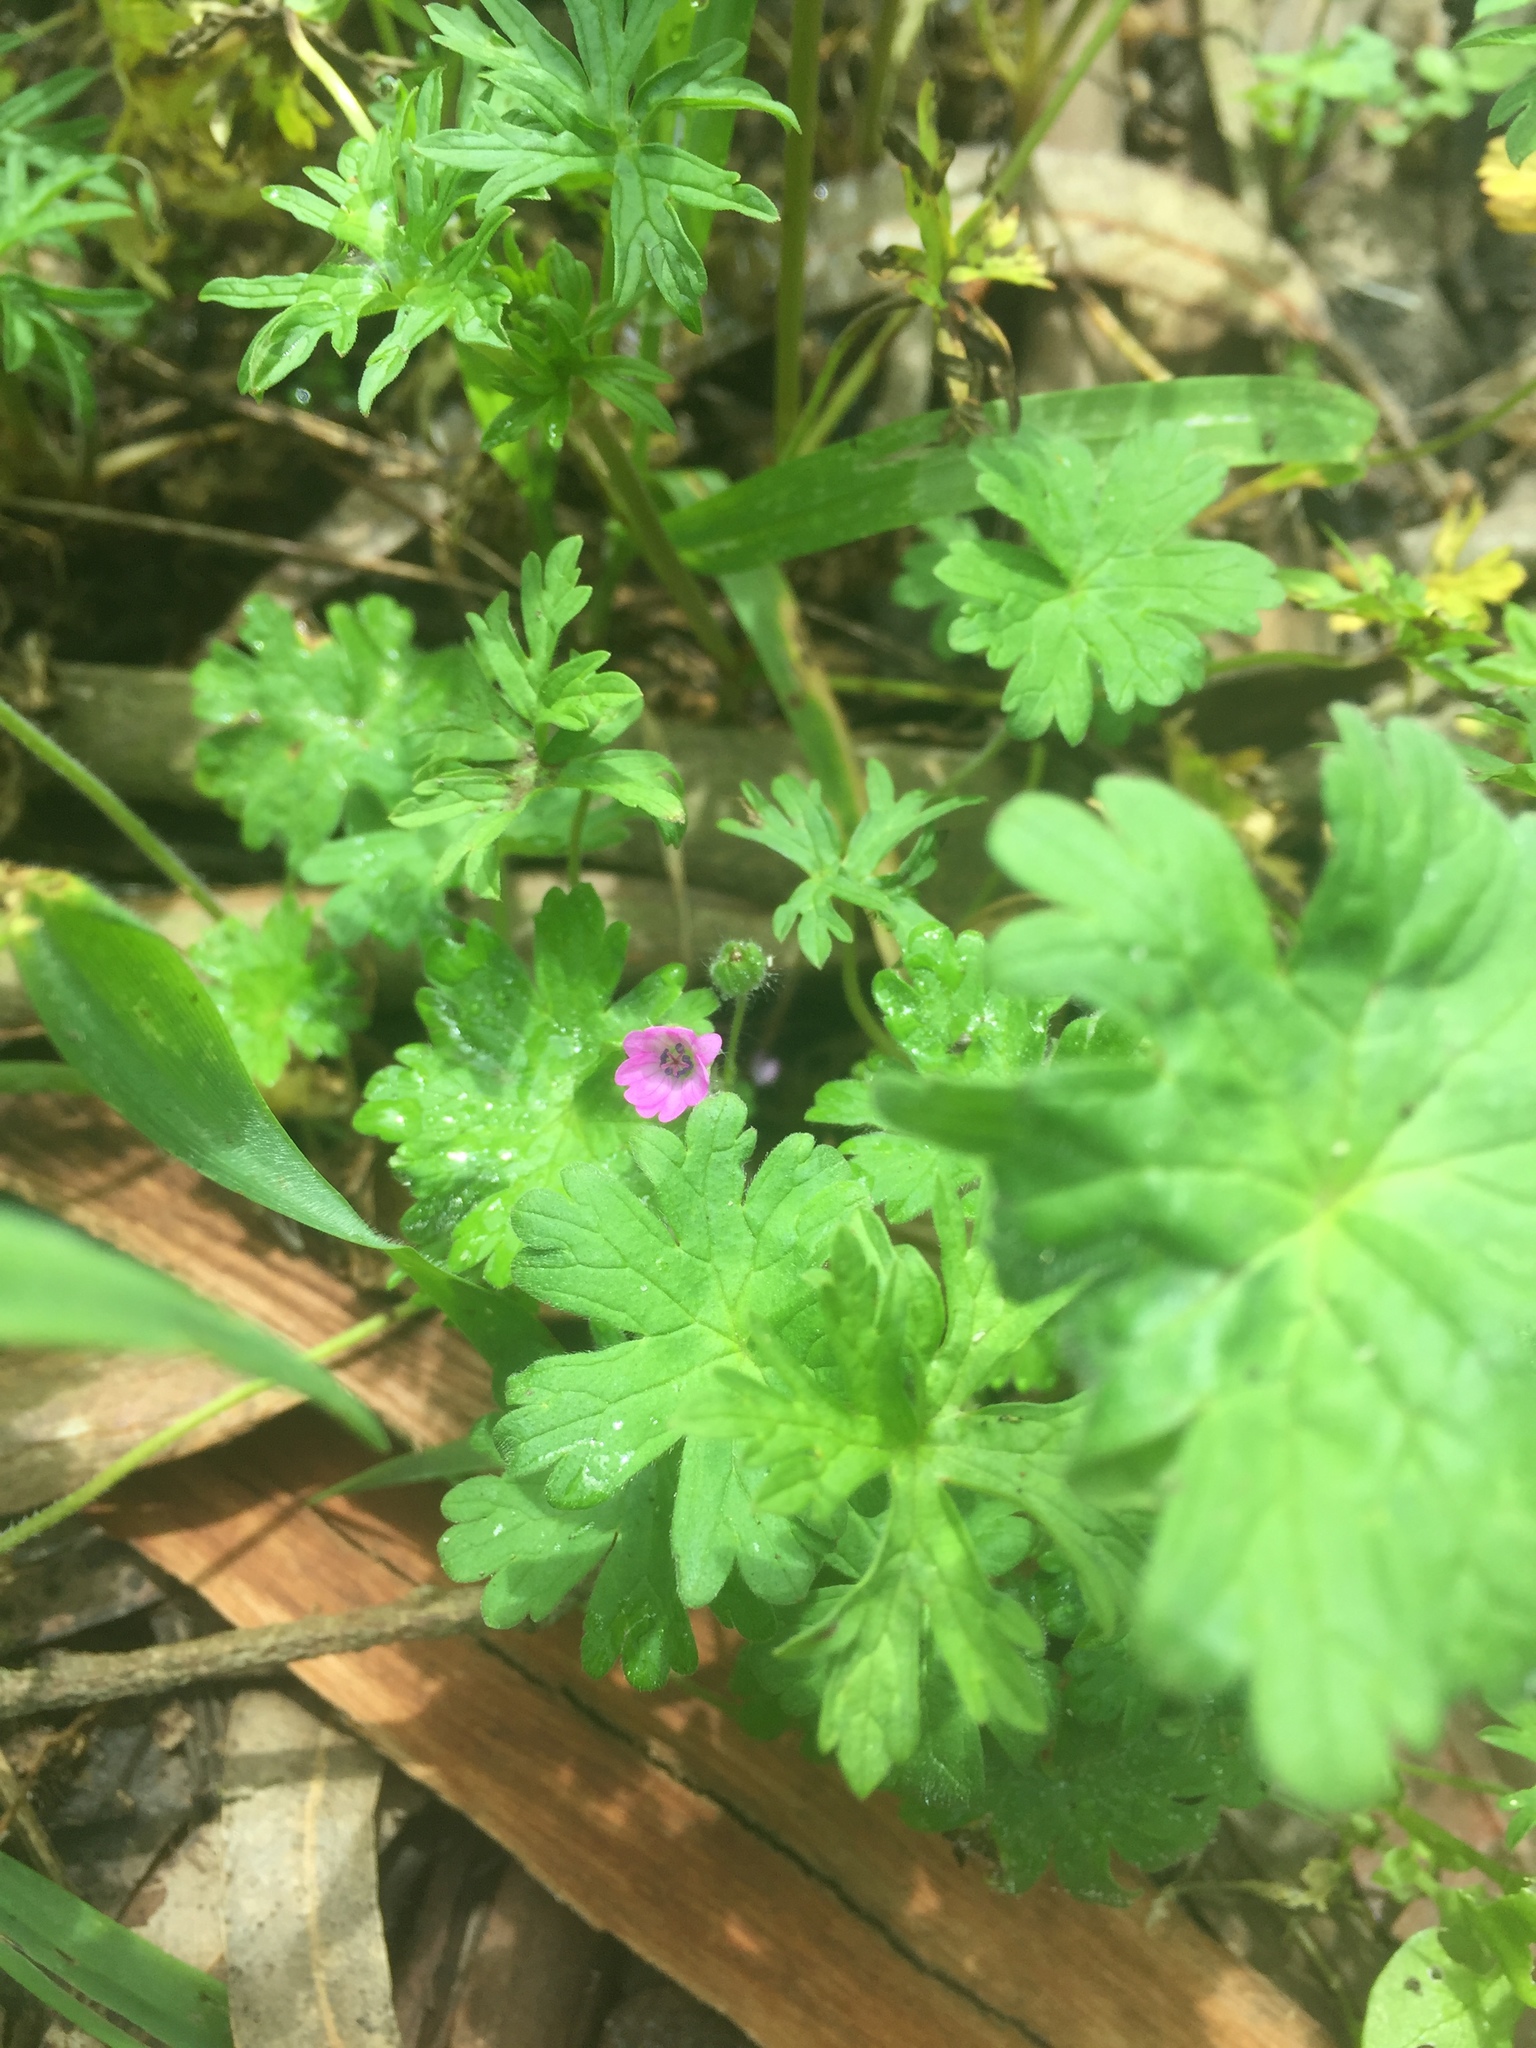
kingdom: Plantae
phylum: Tracheophyta
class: Magnoliopsida
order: Geraniales
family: Geraniaceae
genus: Geranium
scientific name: Geranium molle
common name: Dove's-foot crane's-bill
